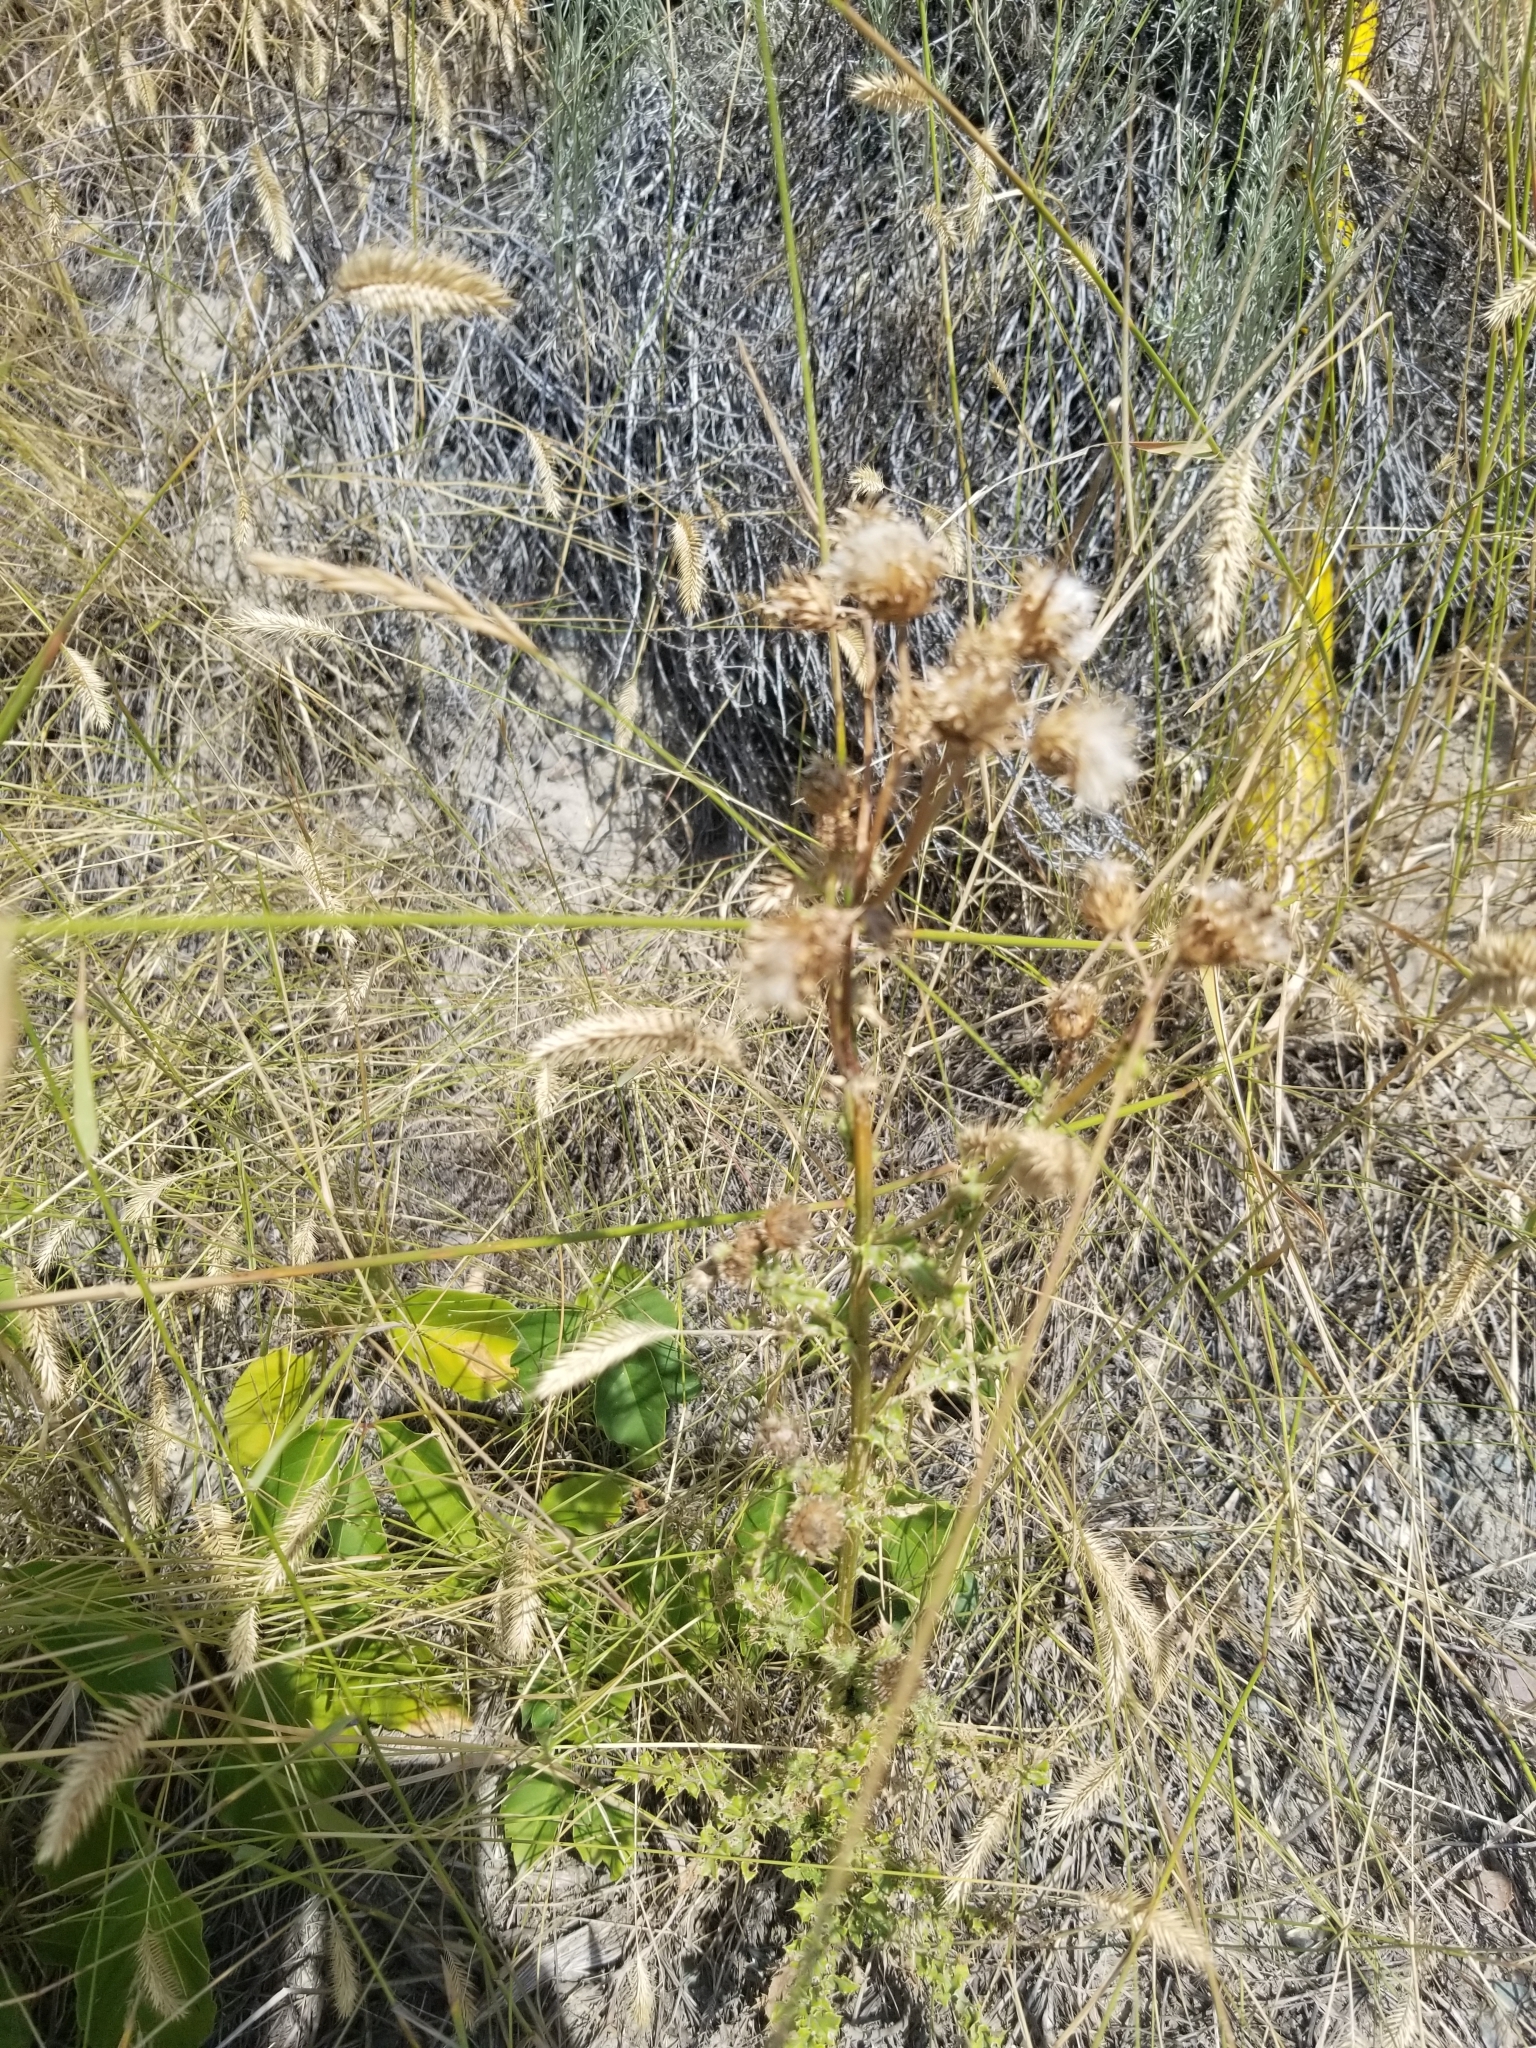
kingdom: Plantae
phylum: Tracheophyta
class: Magnoliopsida
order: Asterales
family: Asteraceae
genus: Cirsium
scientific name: Cirsium arvense
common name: Creeping thistle
